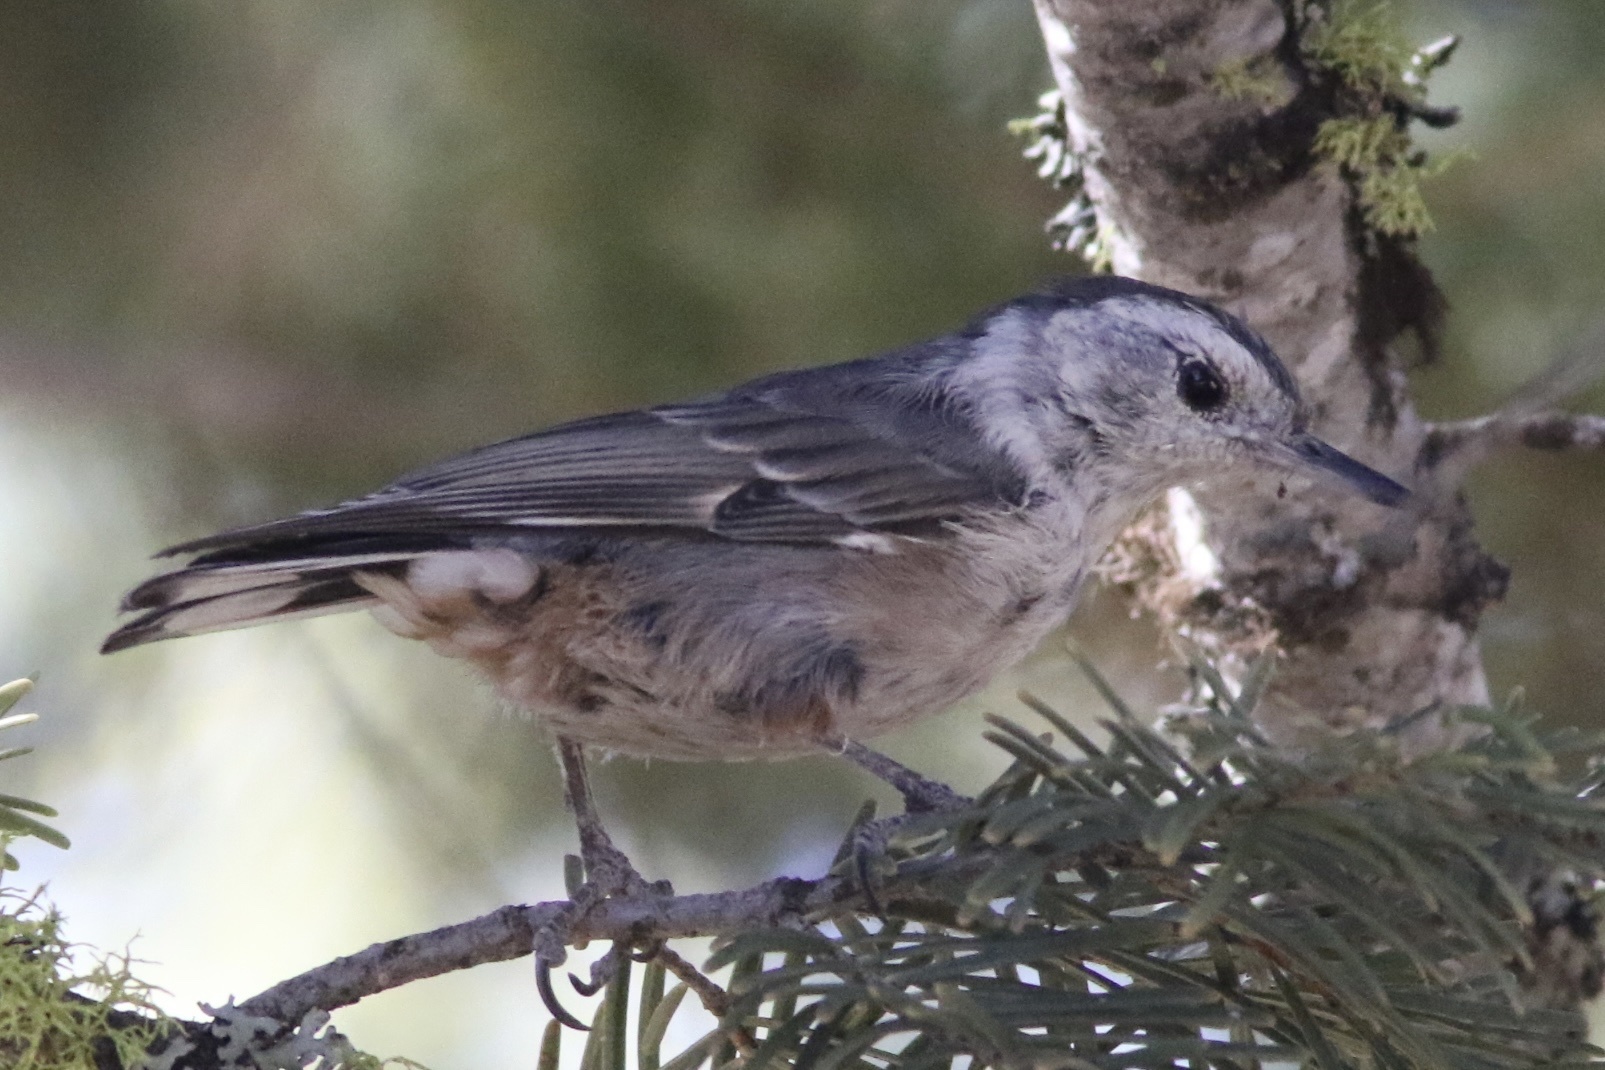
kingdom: Animalia
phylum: Chordata
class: Aves
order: Passeriformes
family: Sittidae
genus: Sitta
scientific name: Sitta carolinensis
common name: White-breasted nuthatch
